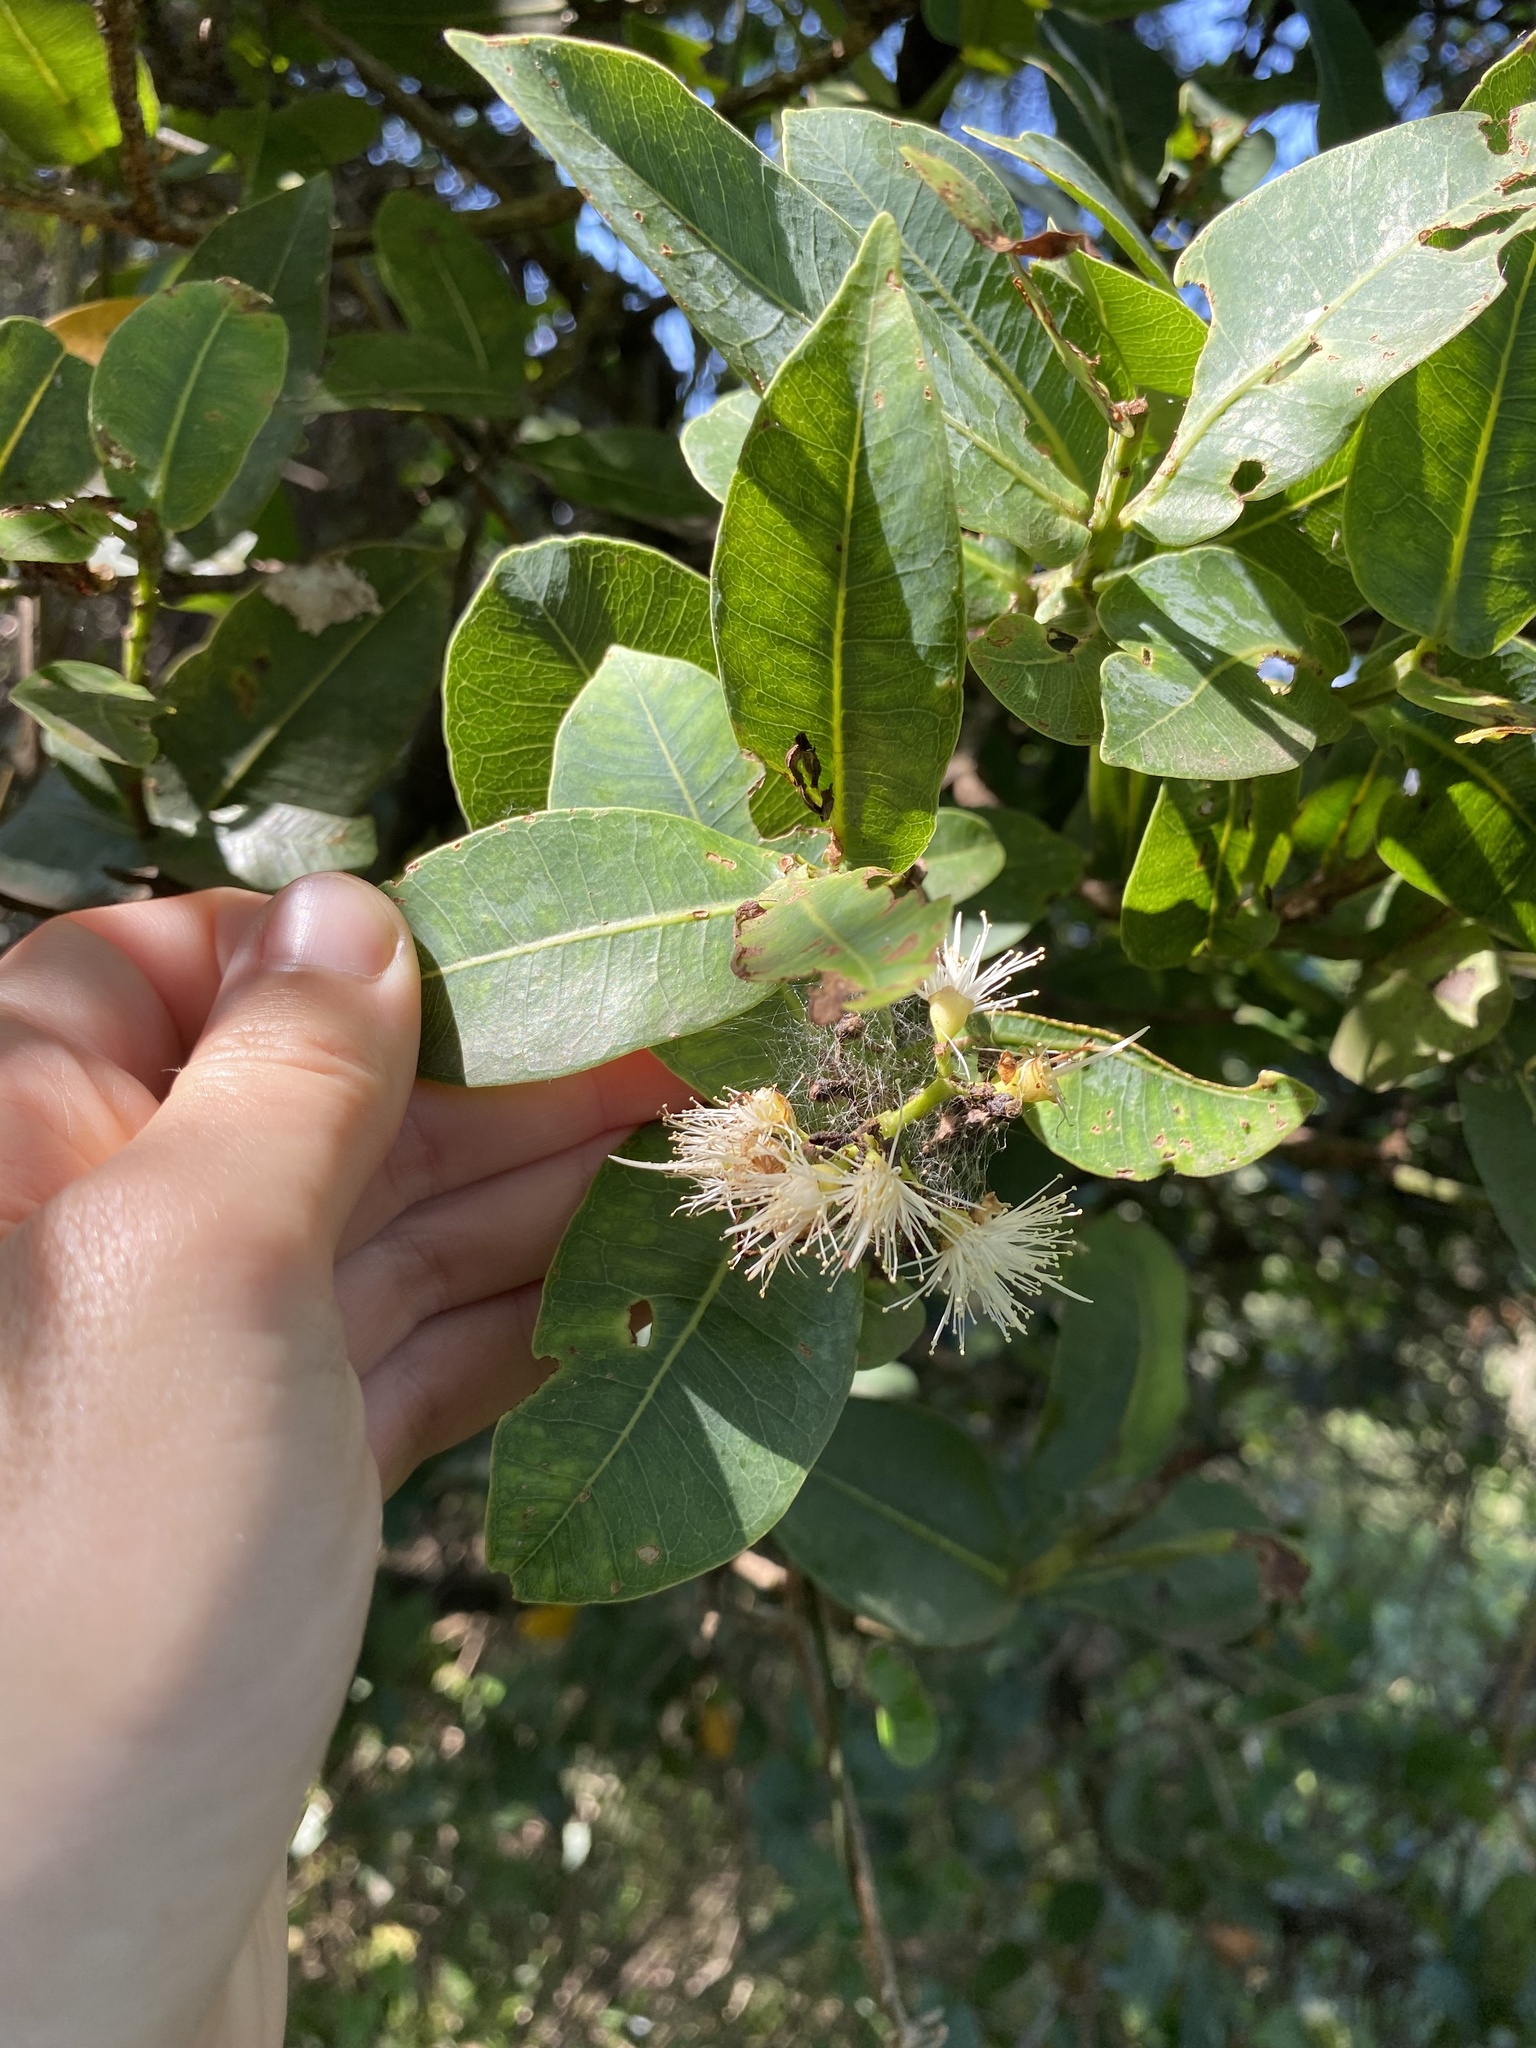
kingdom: Plantae
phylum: Tracheophyta
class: Magnoliopsida
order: Myrtales
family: Myrtaceae
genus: Syzygium
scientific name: Syzygium cordatum
